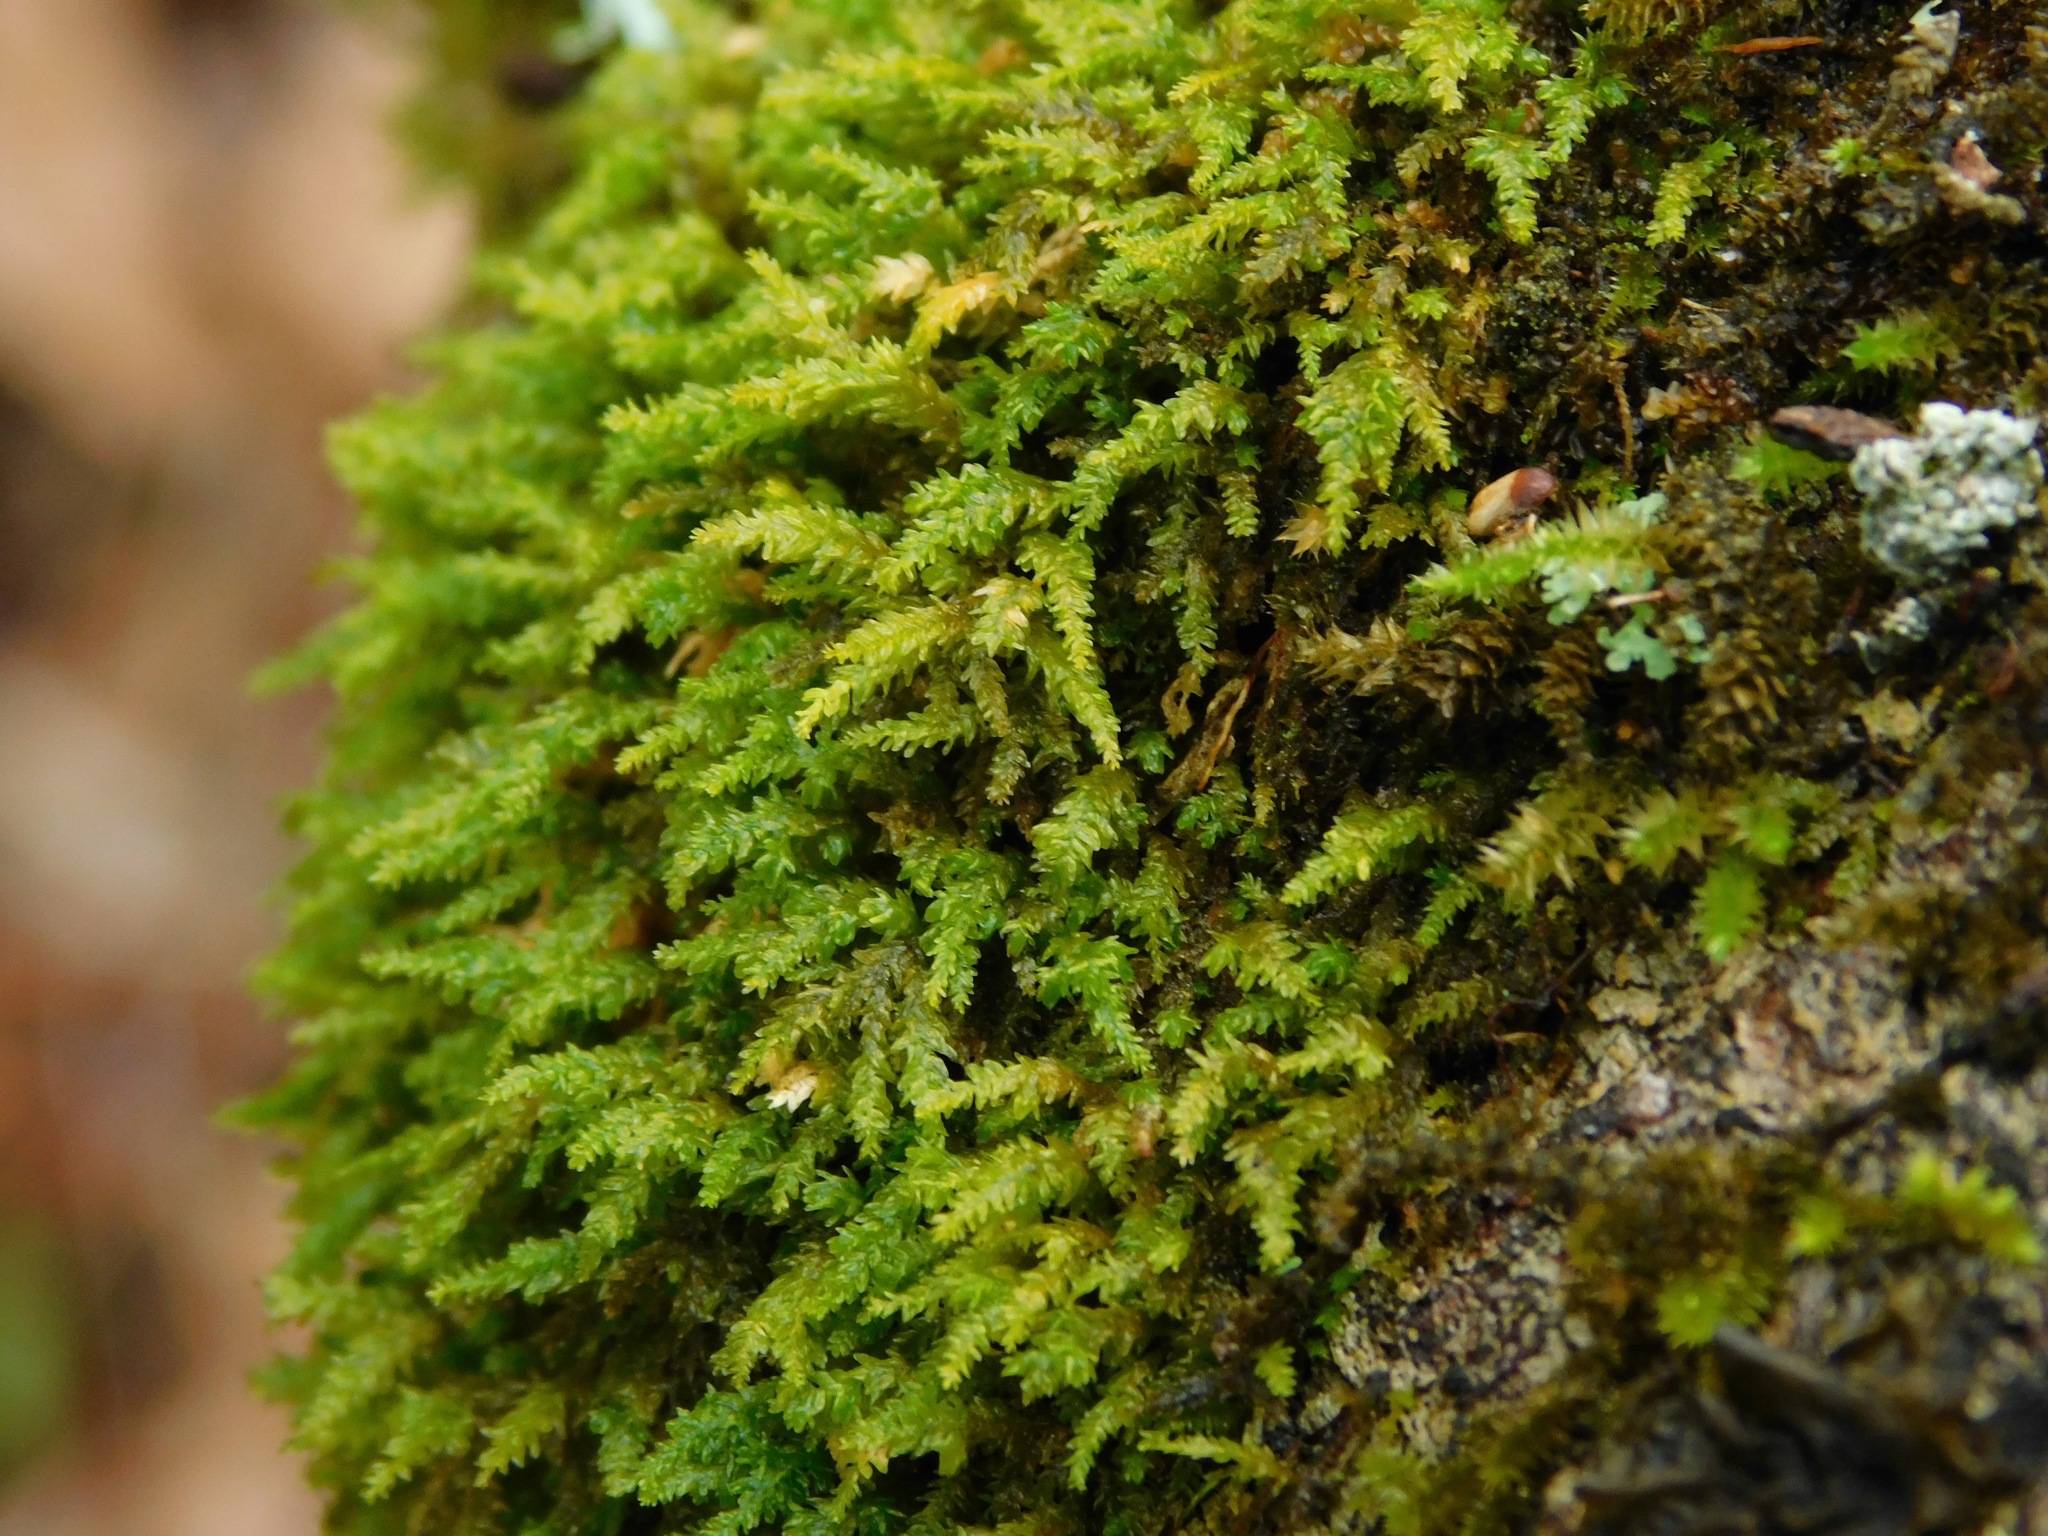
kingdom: Plantae
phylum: Bryophyta
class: Bryopsida
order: Hypnales
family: Neckeraceae
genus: Pseudanomodon
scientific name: Pseudanomodon attenuatus
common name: Tree-skirt moss
